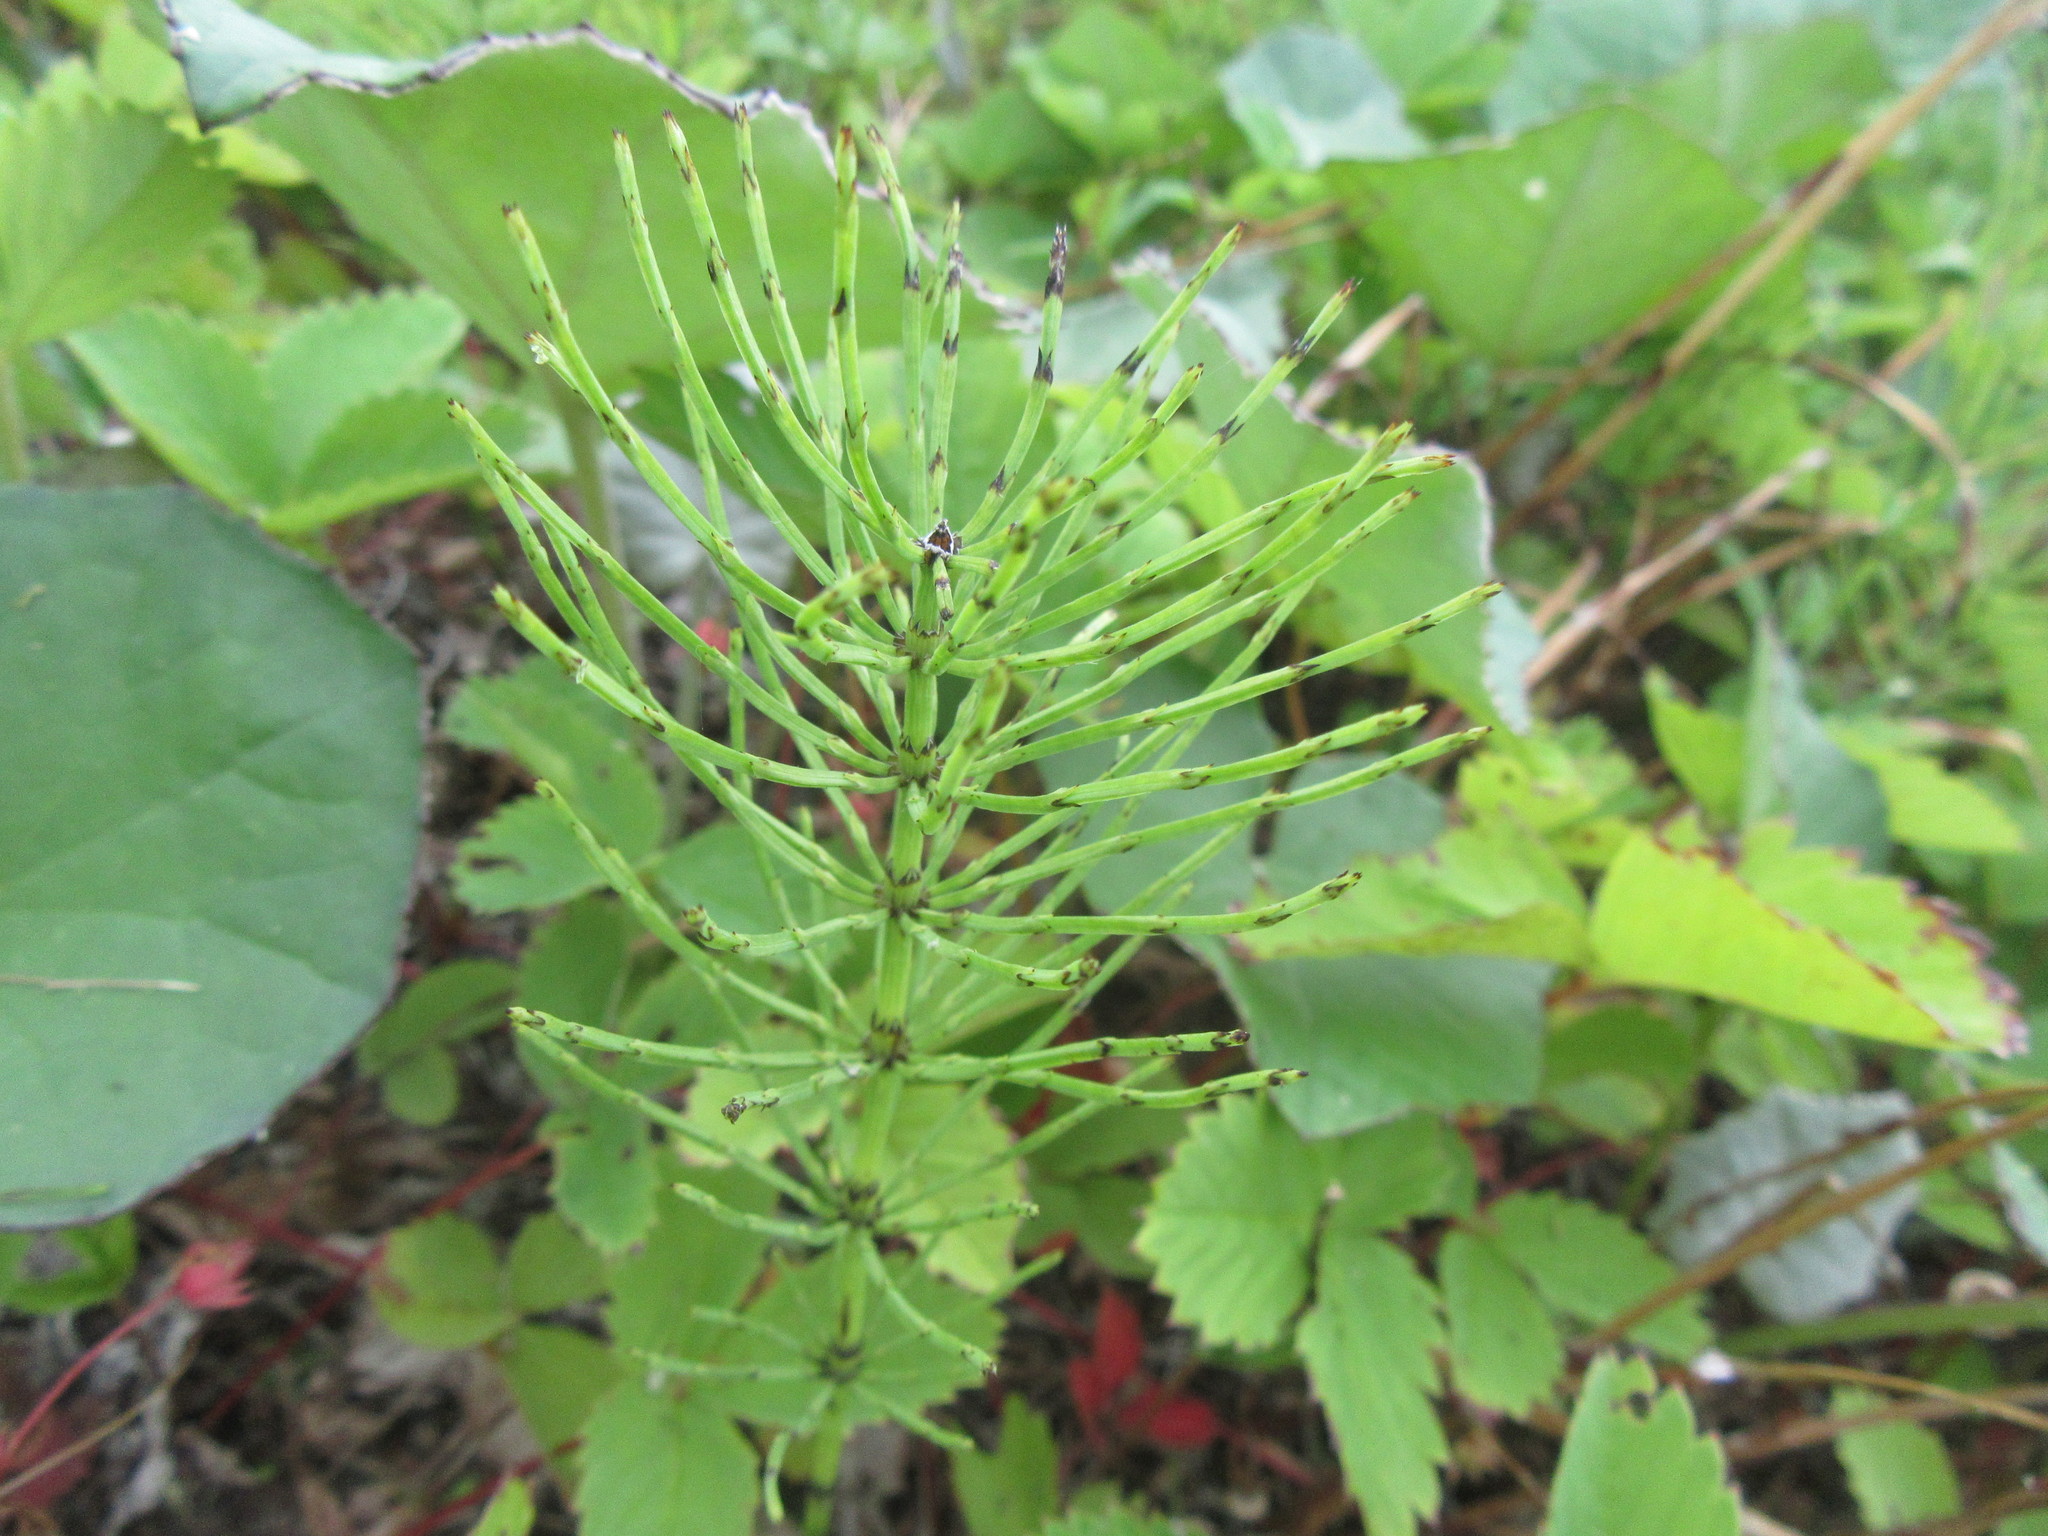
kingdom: Plantae
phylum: Tracheophyta
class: Polypodiopsida
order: Equisetales
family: Equisetaceae
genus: Equisetum
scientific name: Equisetum arvense
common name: Field horsetail
